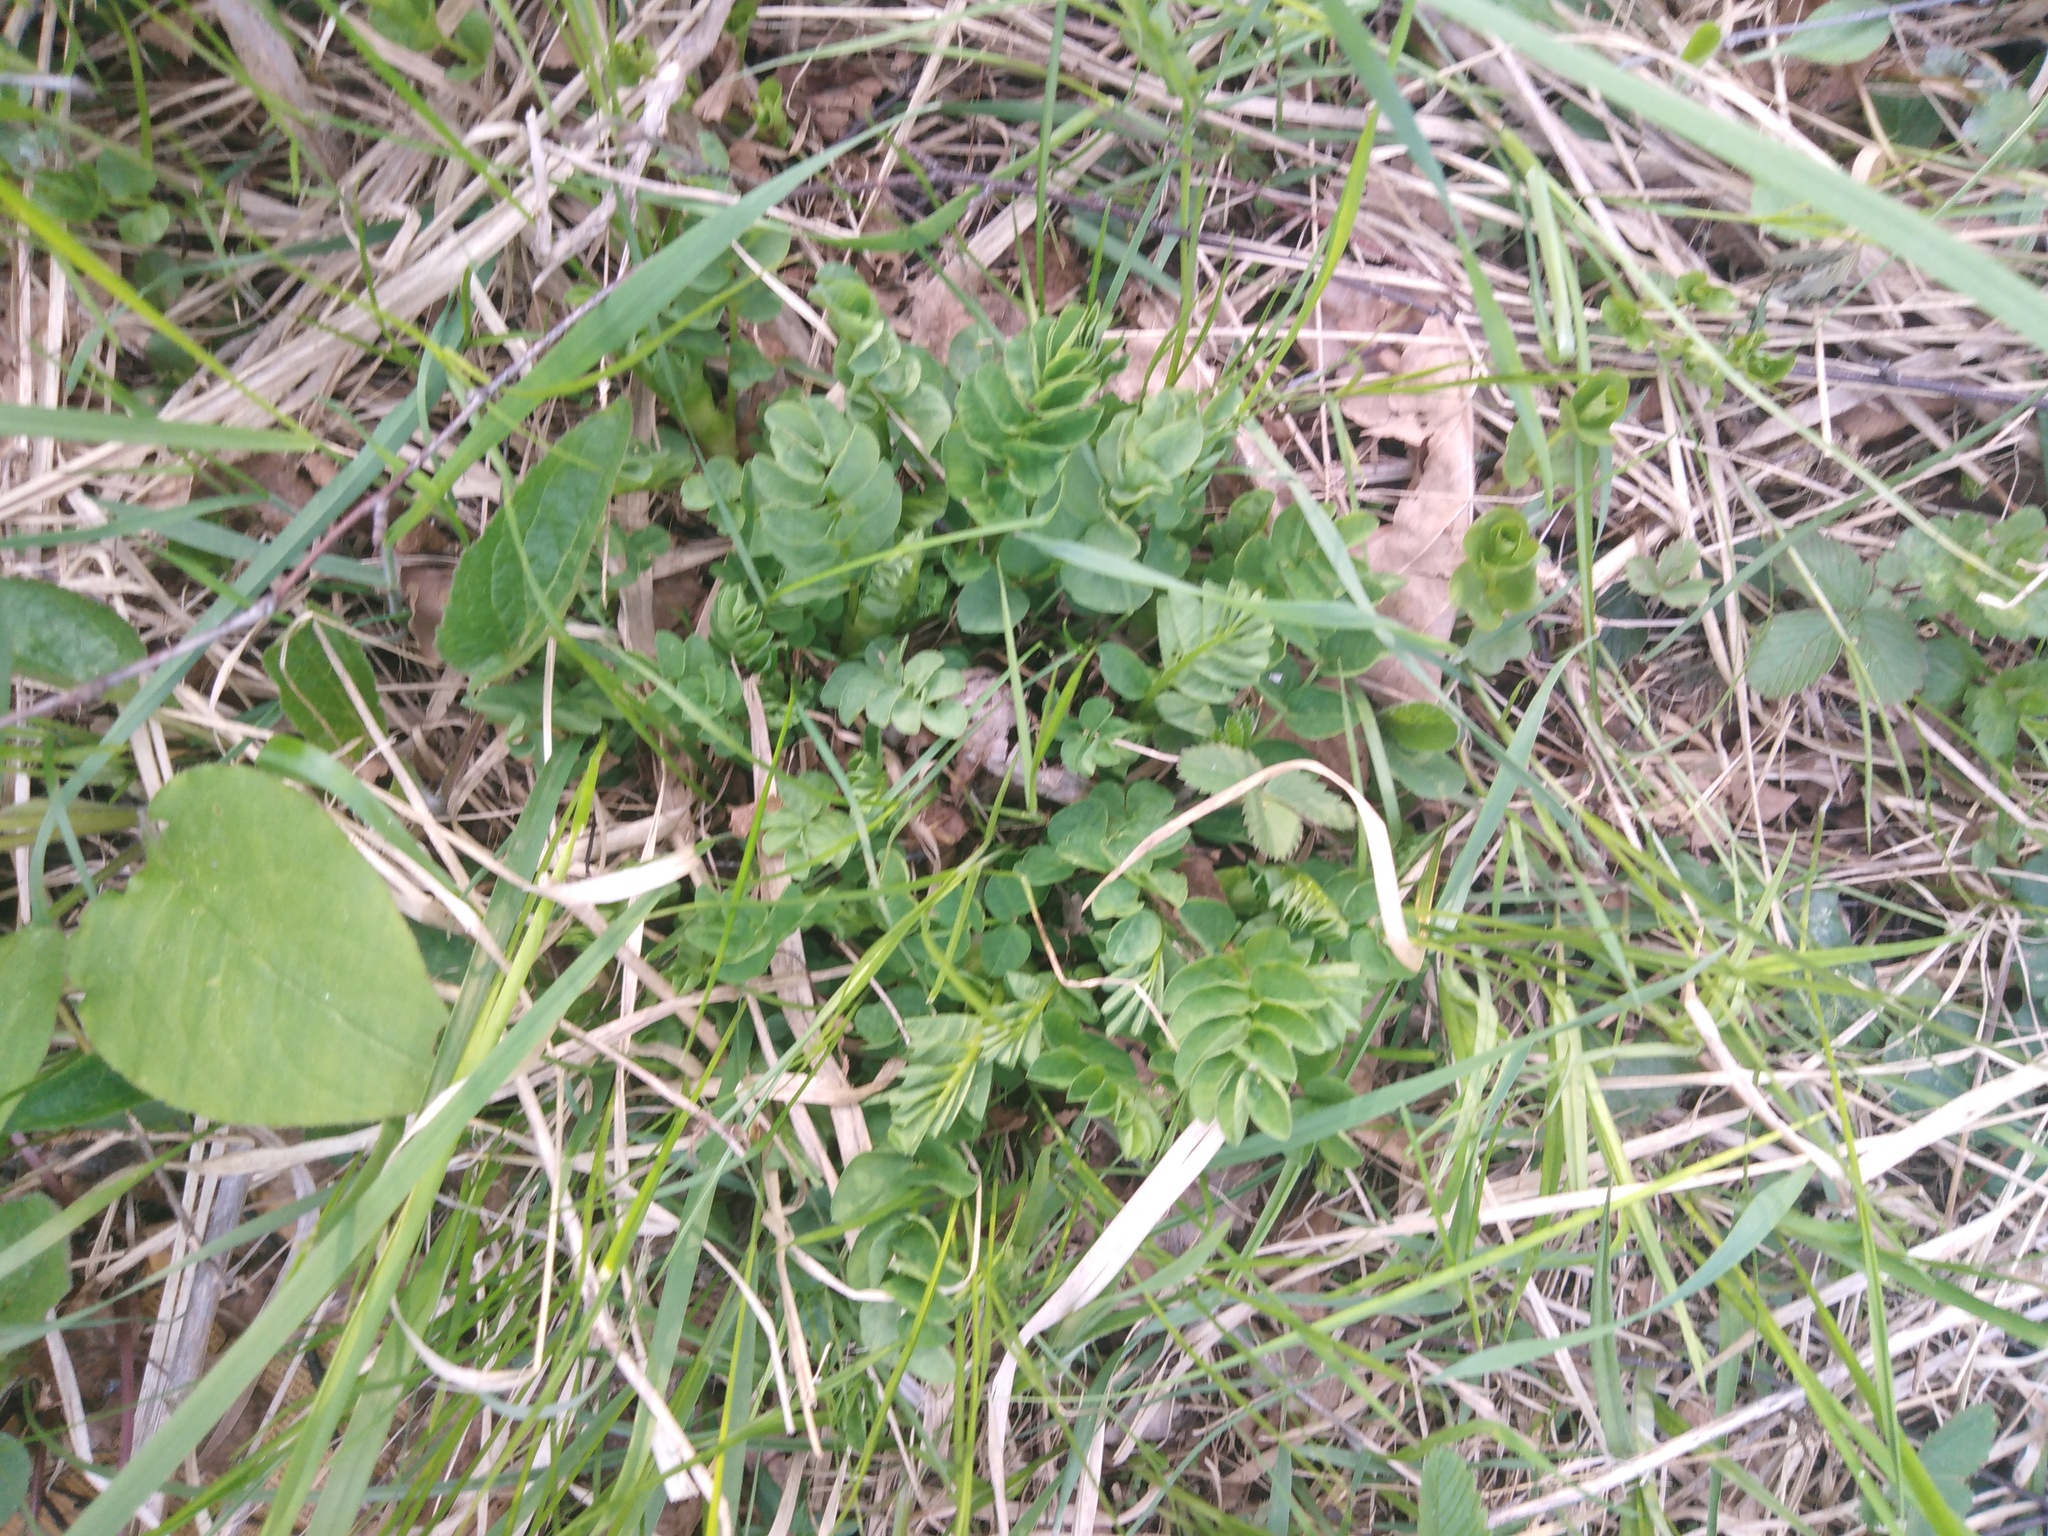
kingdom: Plantae
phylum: Tracheophyta
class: Magnoliopsida
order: Fabales
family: Fabaceae
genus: Astragalus
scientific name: Astragalus glycyphyllos
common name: Wild liquorice
